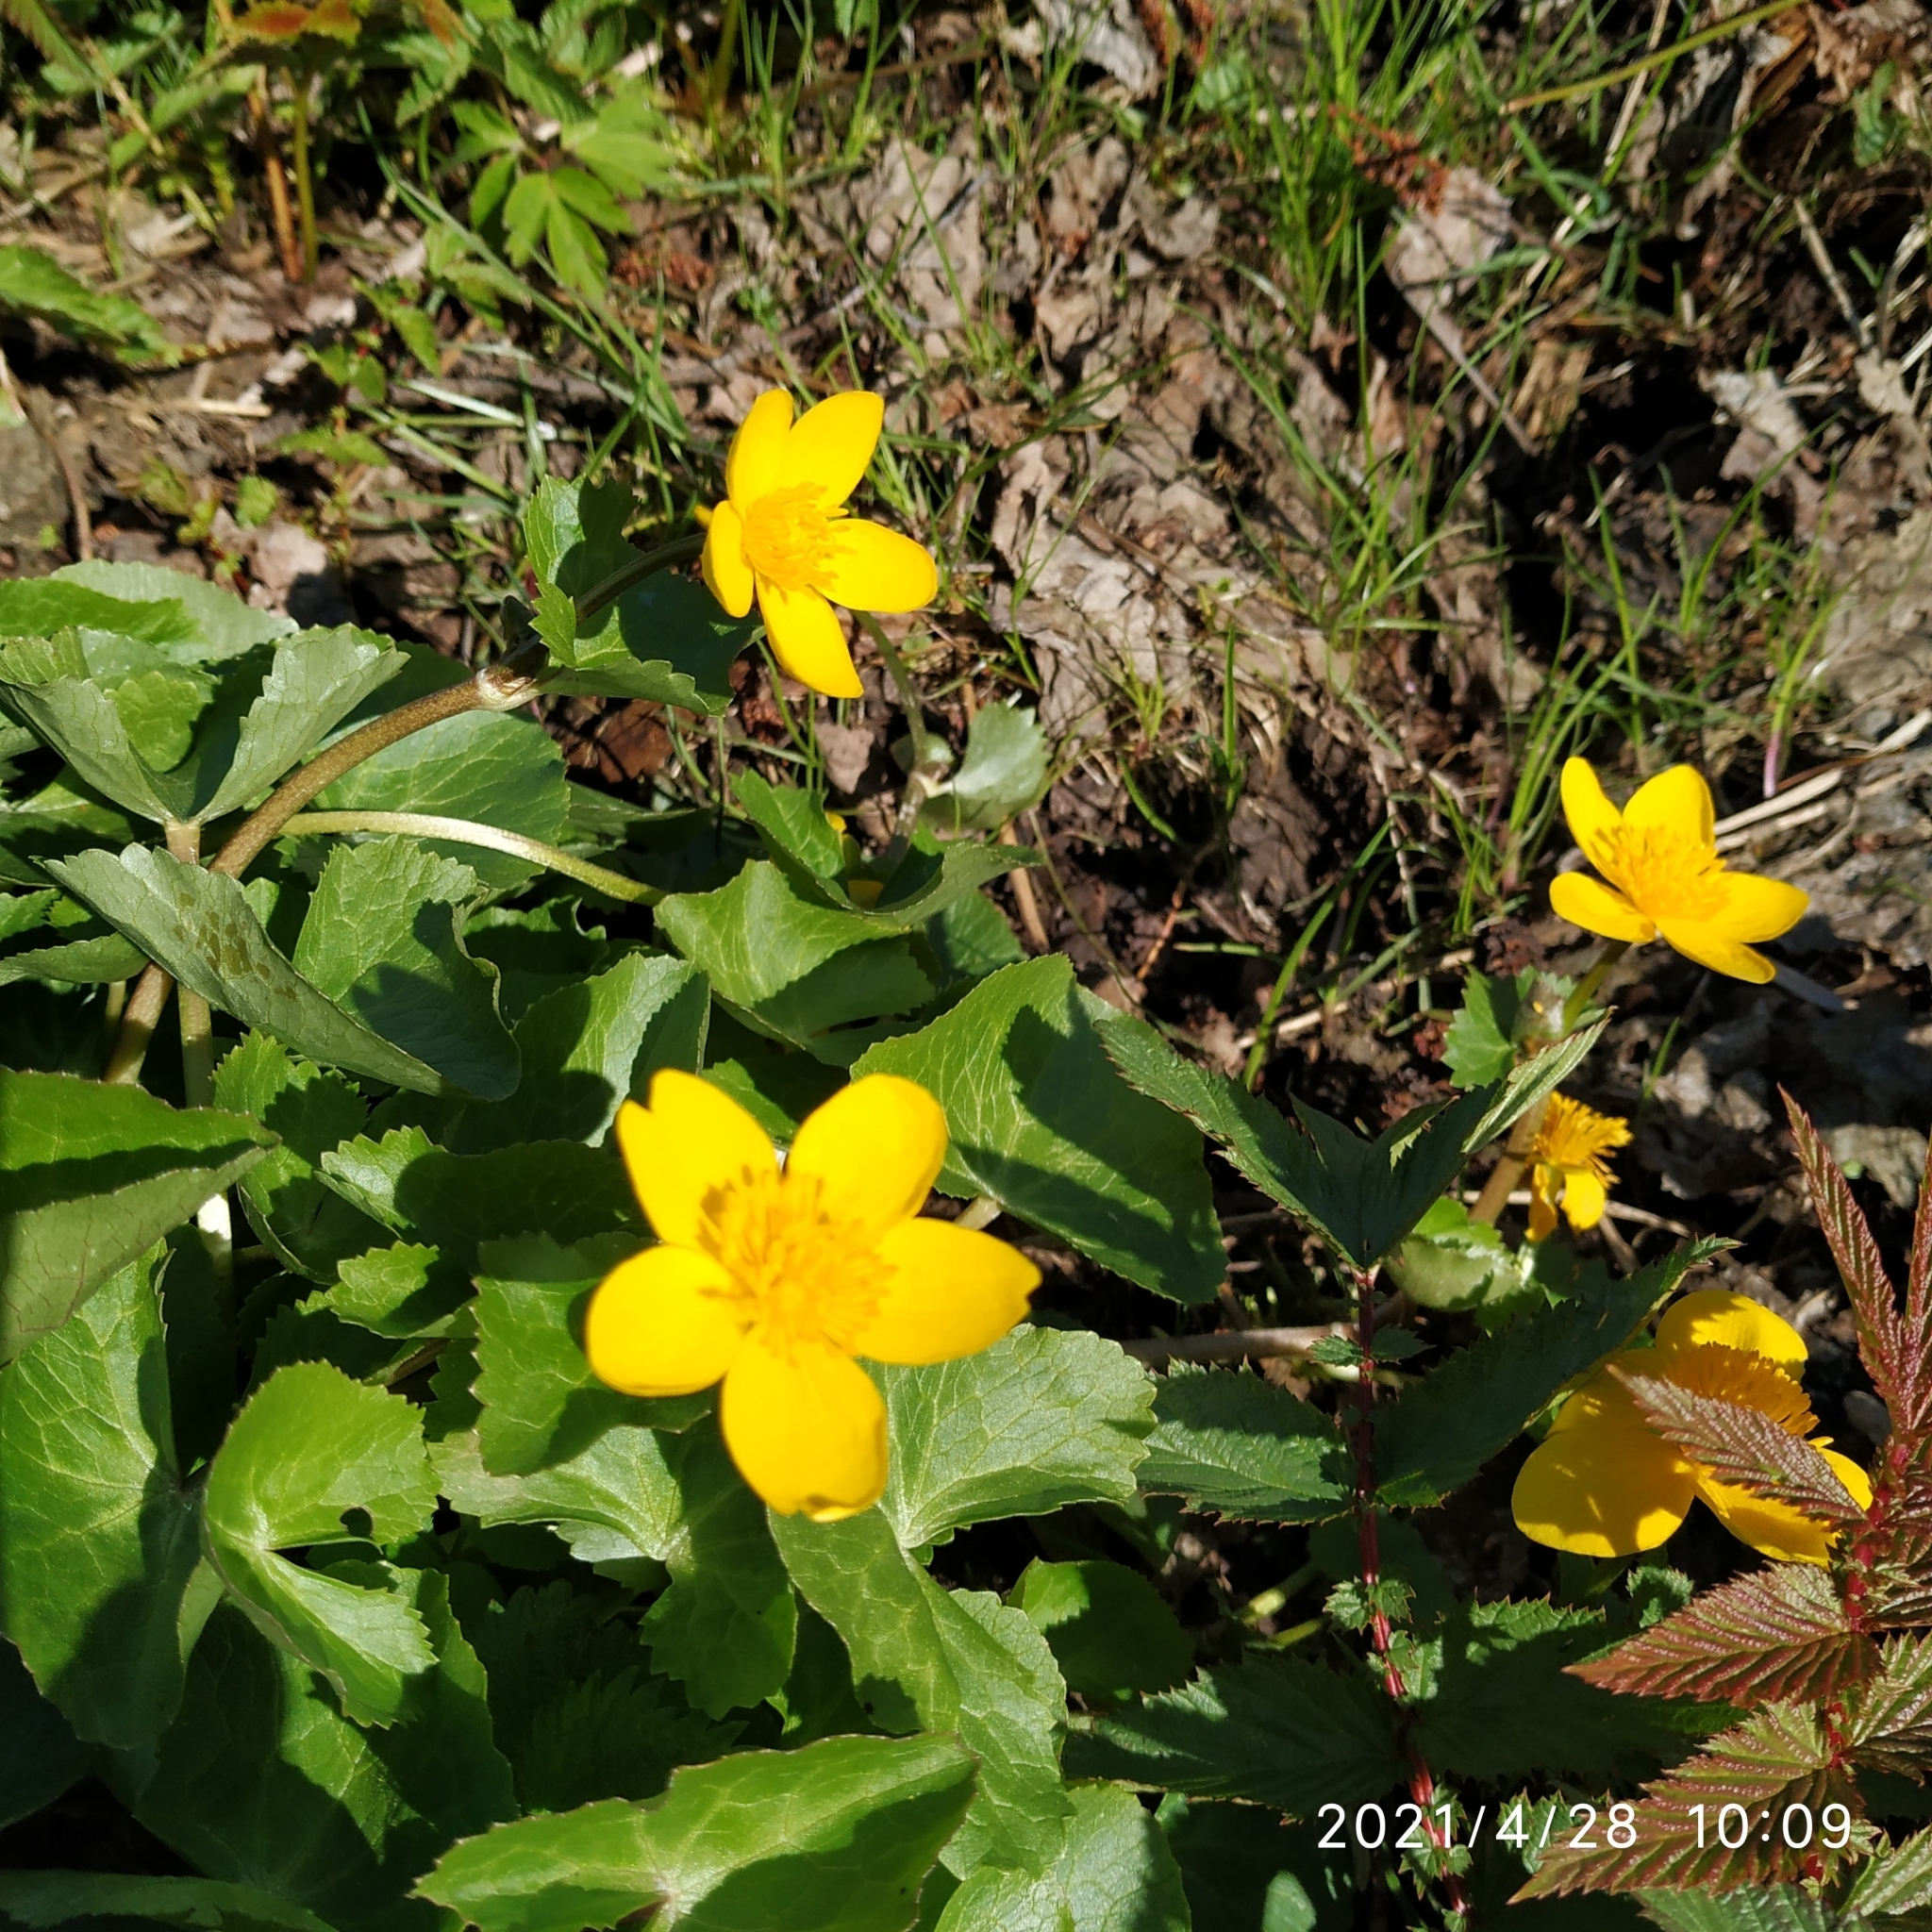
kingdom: Plantae
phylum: Tracheophyta
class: Magnoliopsida
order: Ranunculales
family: Ranunculaceae
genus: Caltha
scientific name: Caltha palustris
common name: Marsh marigold
